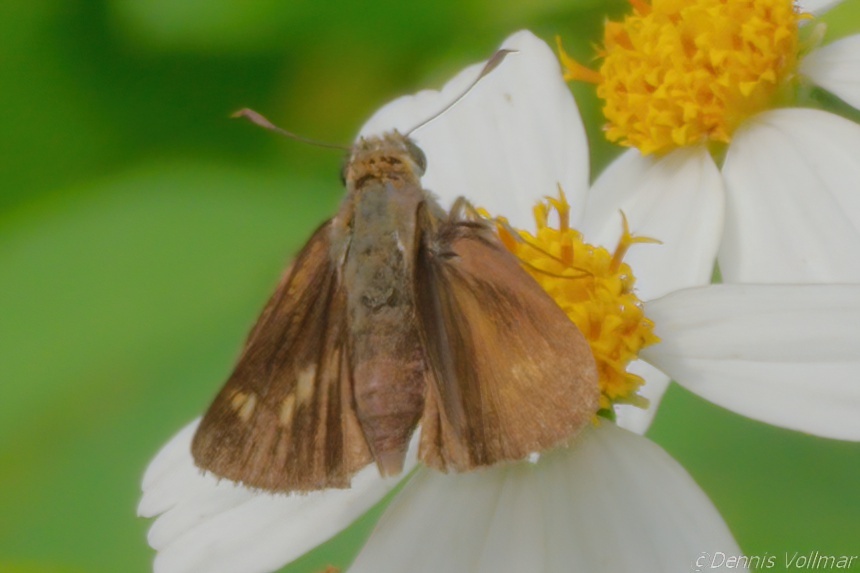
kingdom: Animalia
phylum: Arthropoda
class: Insecta
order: Lepidoptera
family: Hesperiidae
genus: Polites
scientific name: Polites otho
